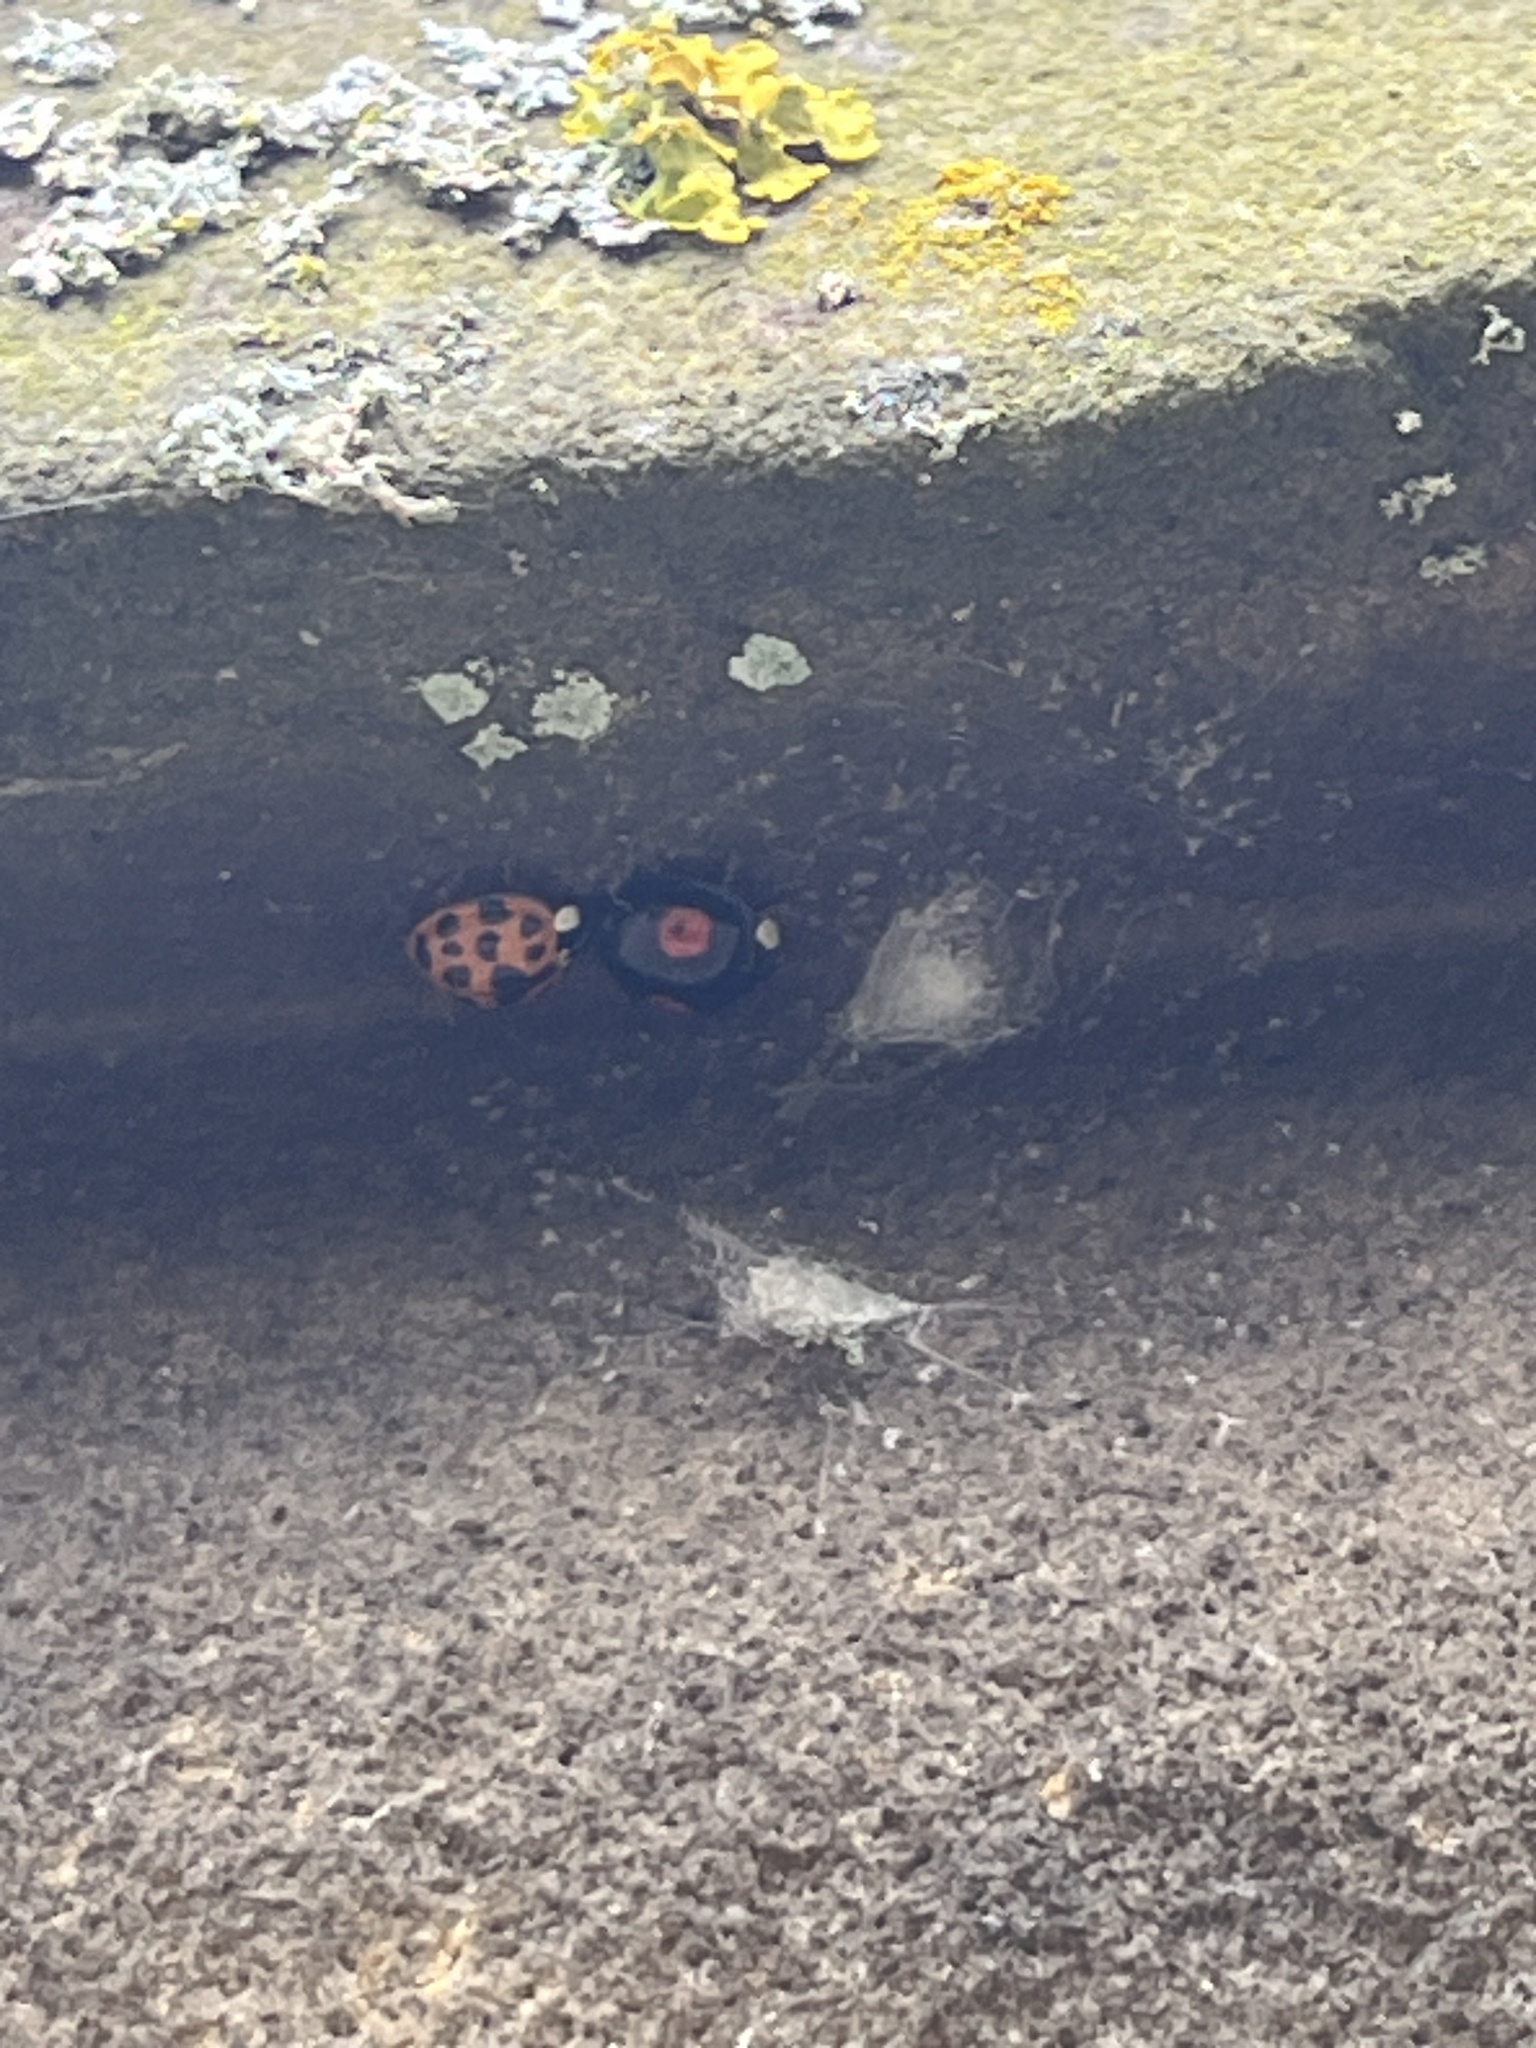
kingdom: Animalia
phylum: Arthropoda
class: Insecta
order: Coleoptera
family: Coccinellidae
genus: Harmonia
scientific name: Harmonia axyridis
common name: Harlequin ladybird
